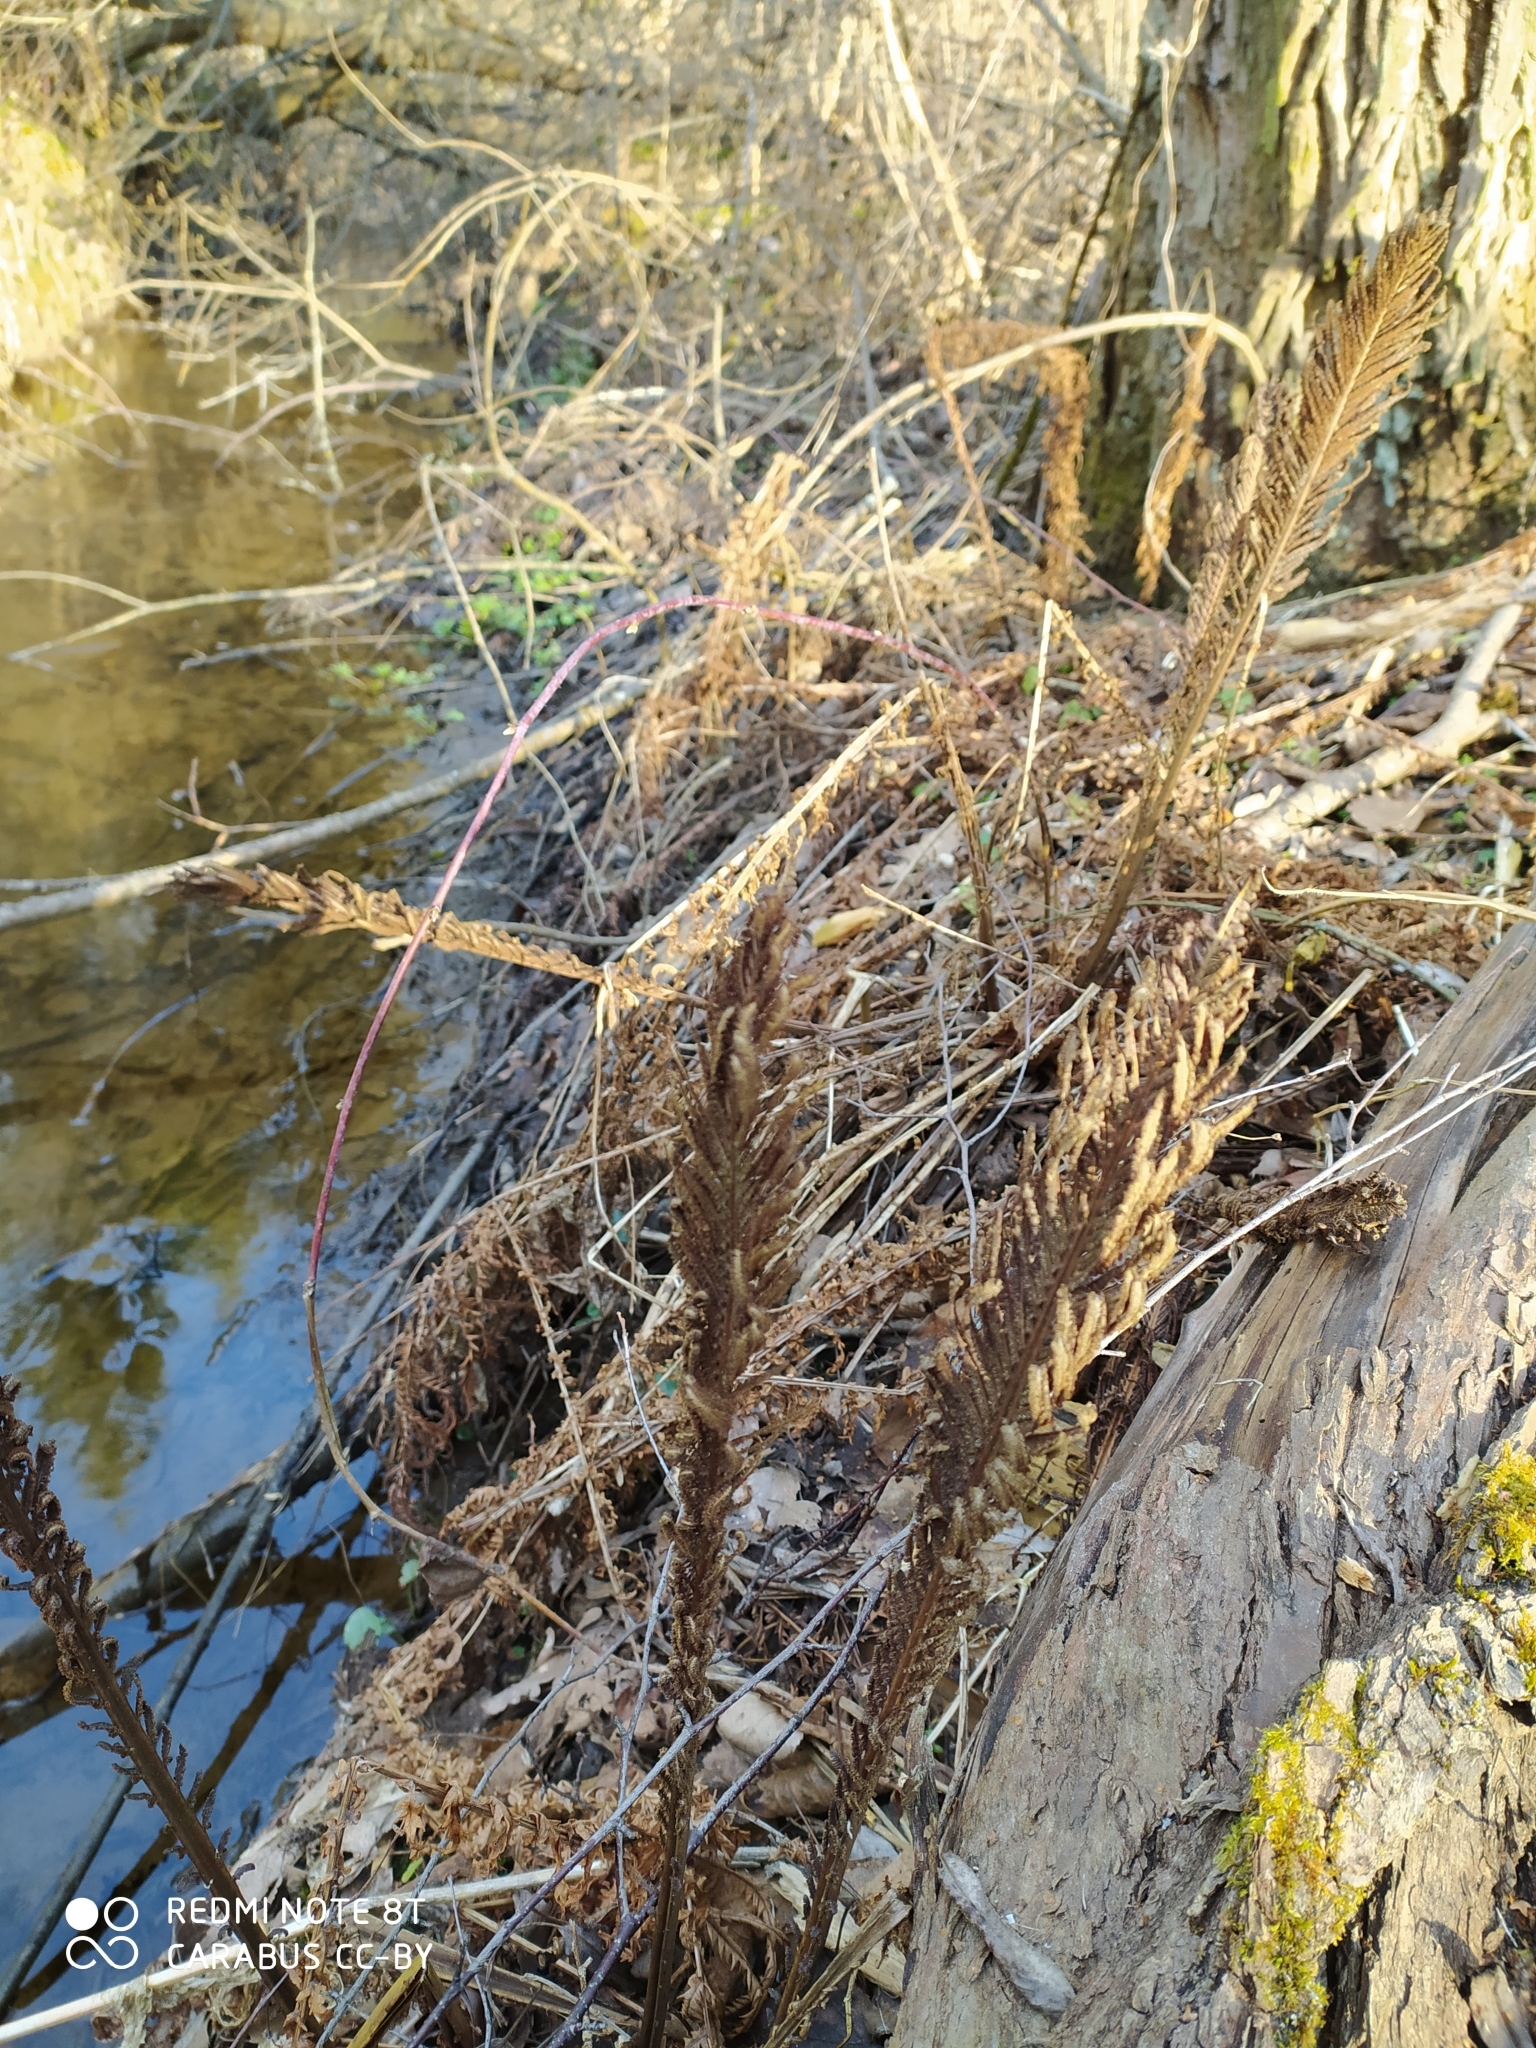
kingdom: Plantae
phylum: Tracheophyta
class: Polypodiopsida
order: Polypodiales
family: Onocleaceae
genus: Matteuccia
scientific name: Matteuccia struthiopteris
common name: Ostrich fern
